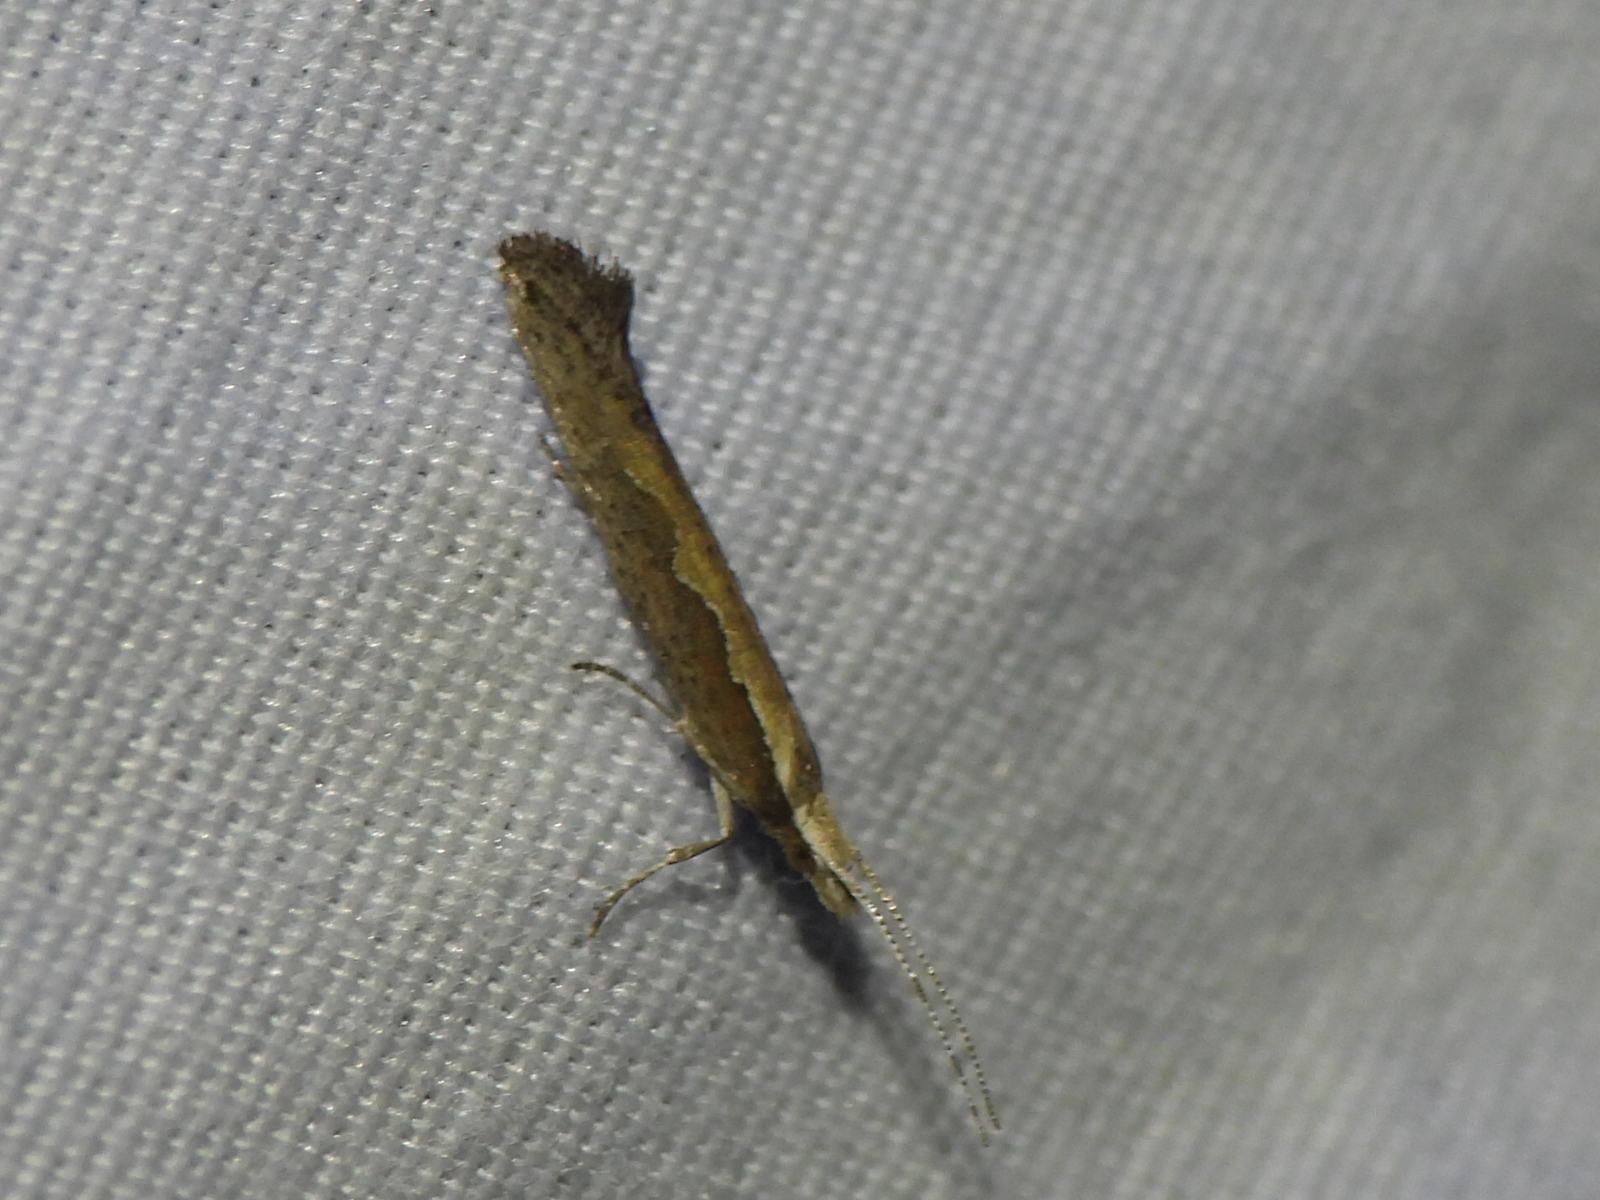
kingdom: Animalia
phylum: Arthropoda
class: Insecta
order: Lepidoptera
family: Plutellidae
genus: Plutella
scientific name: Plutella xylostella
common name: Diamond-back moth
